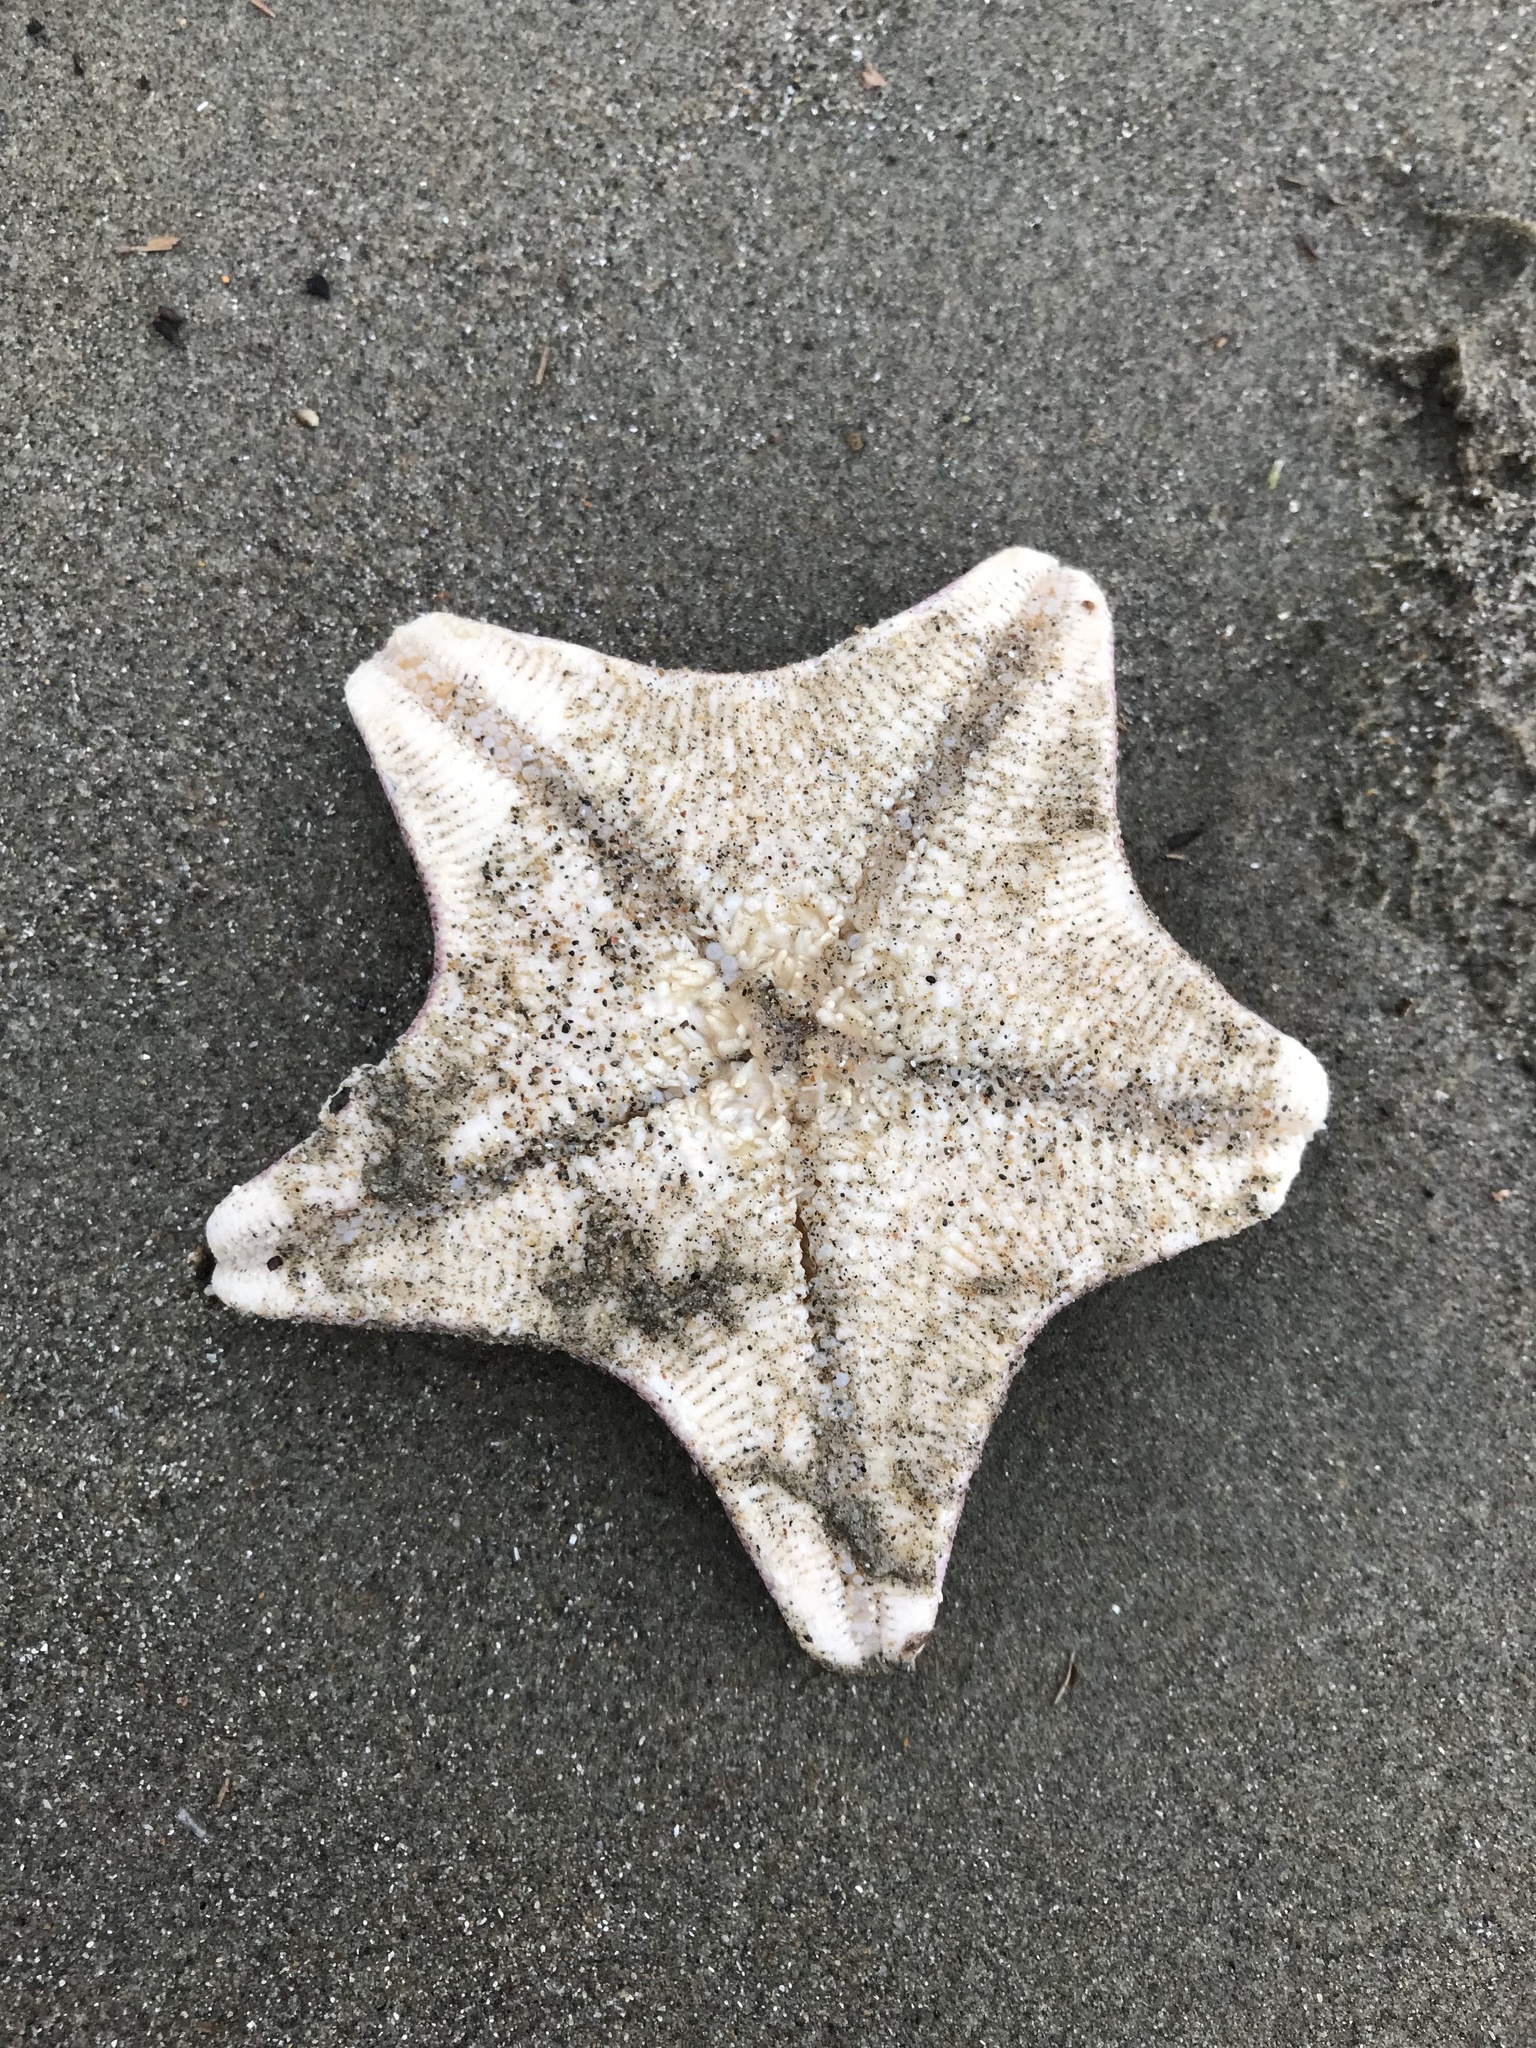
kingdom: Animalia
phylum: Echinodermata
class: Asteroidea
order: Valvatida
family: Asterinidae
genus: Patiria
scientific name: Patiria miniata
